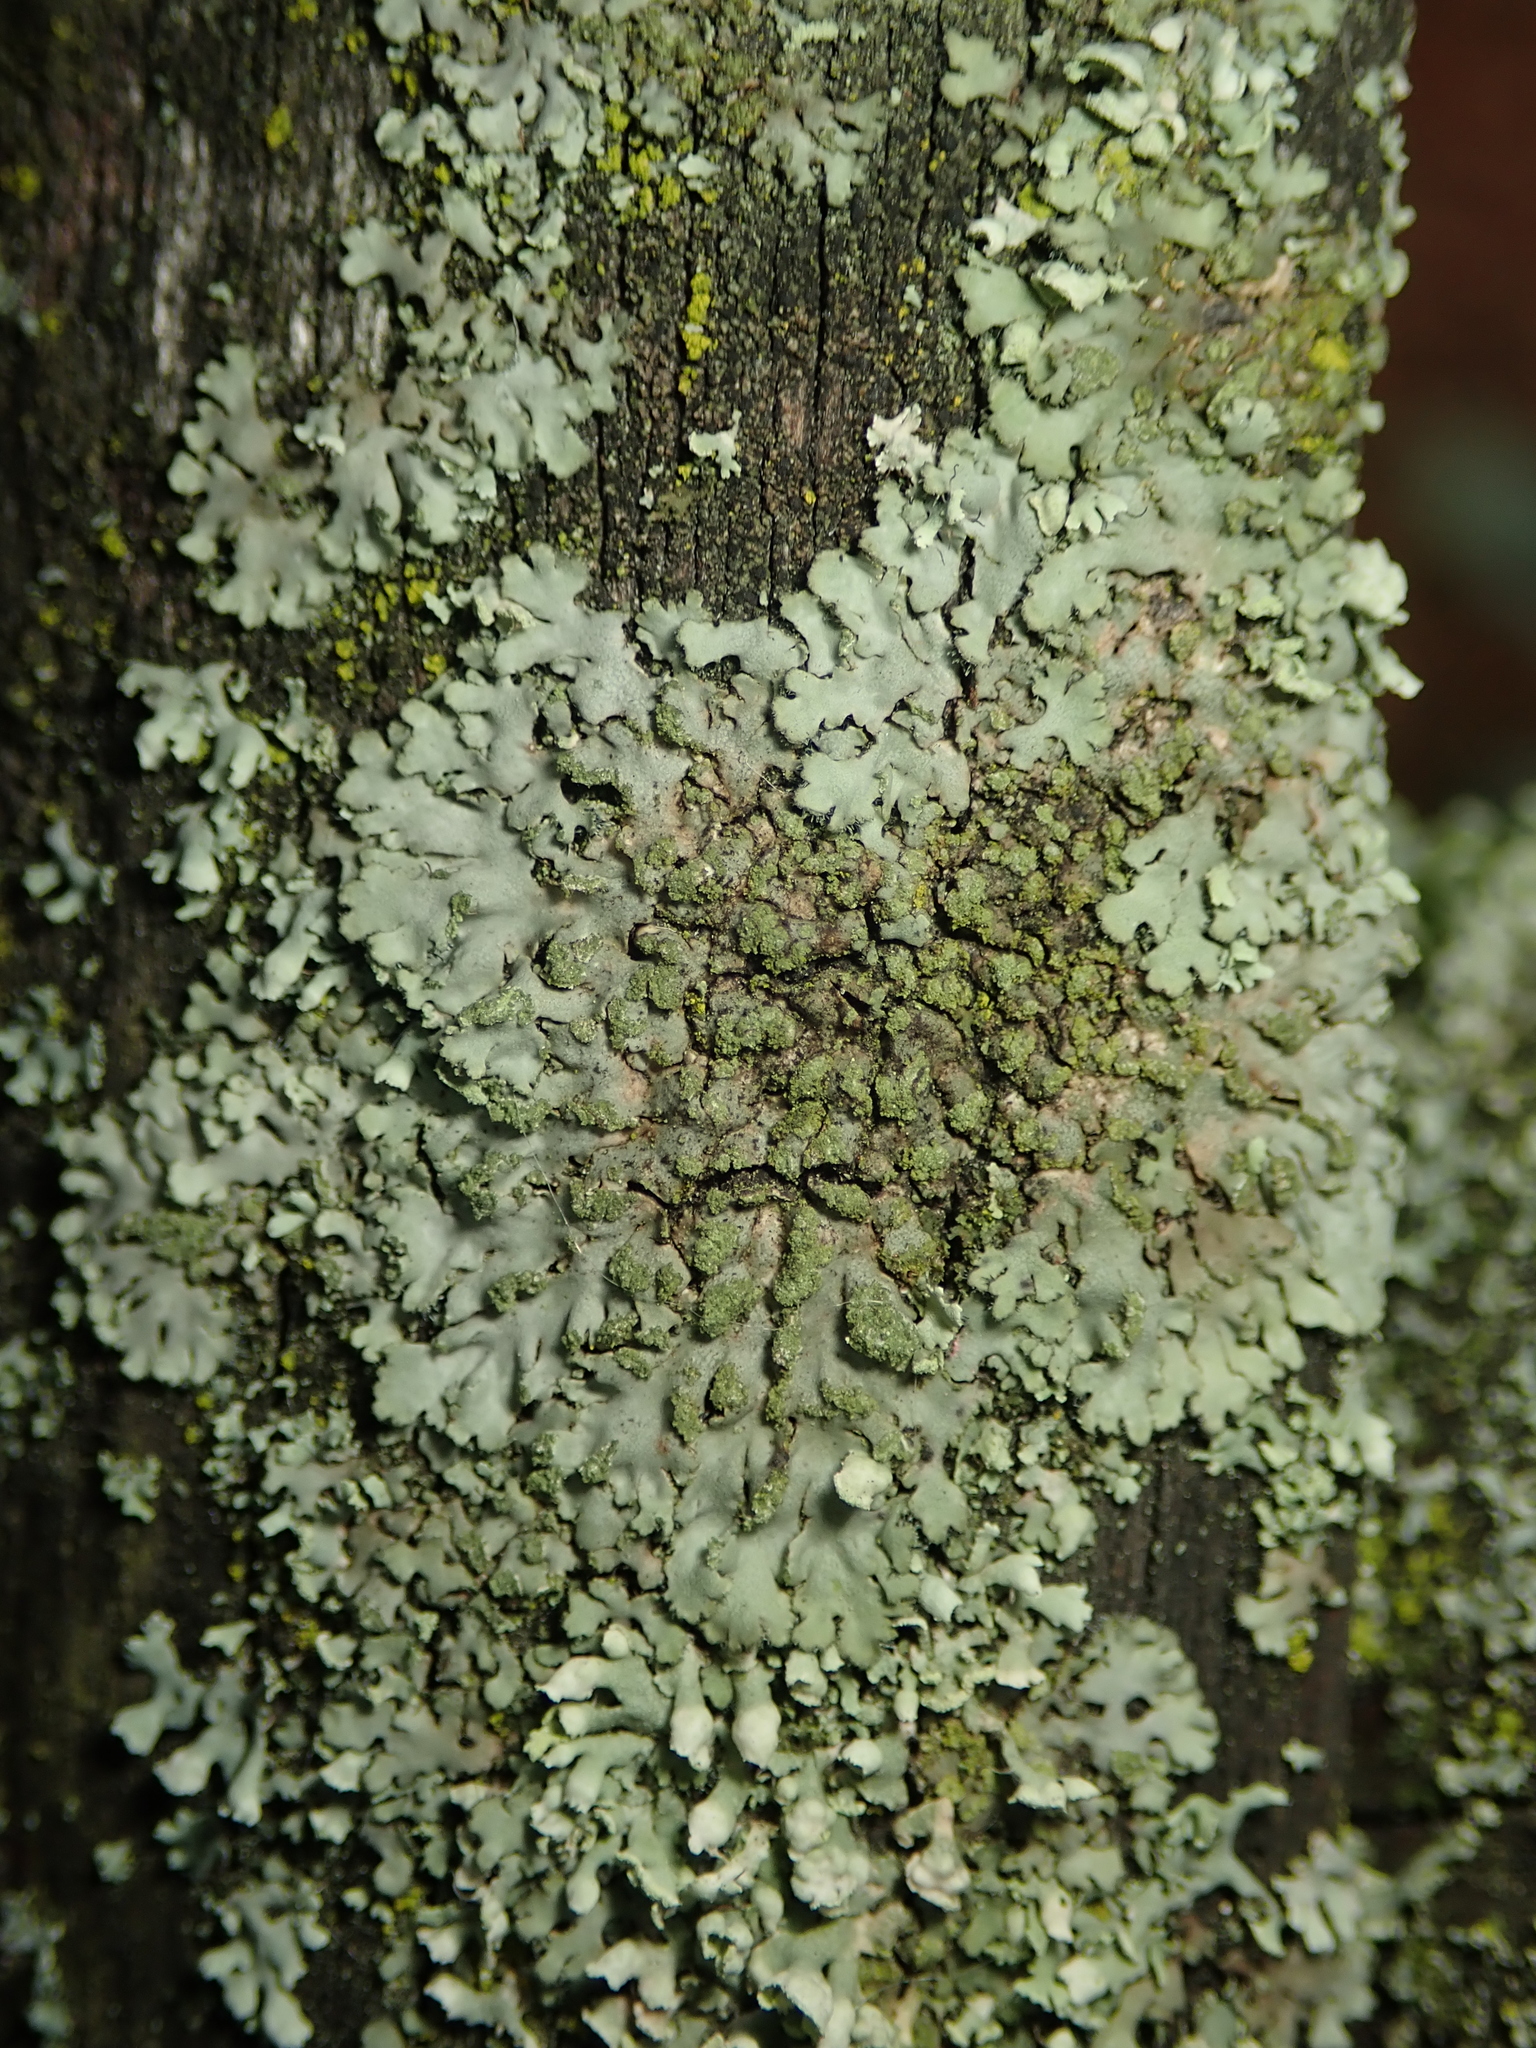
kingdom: Fungi
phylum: Ascomycota
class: Lecanoromycetes
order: Caliciales
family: Physciaceae
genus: Phaeophyscia
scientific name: Phaeophyscia orbicularis
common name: Mealy shadow lichen
